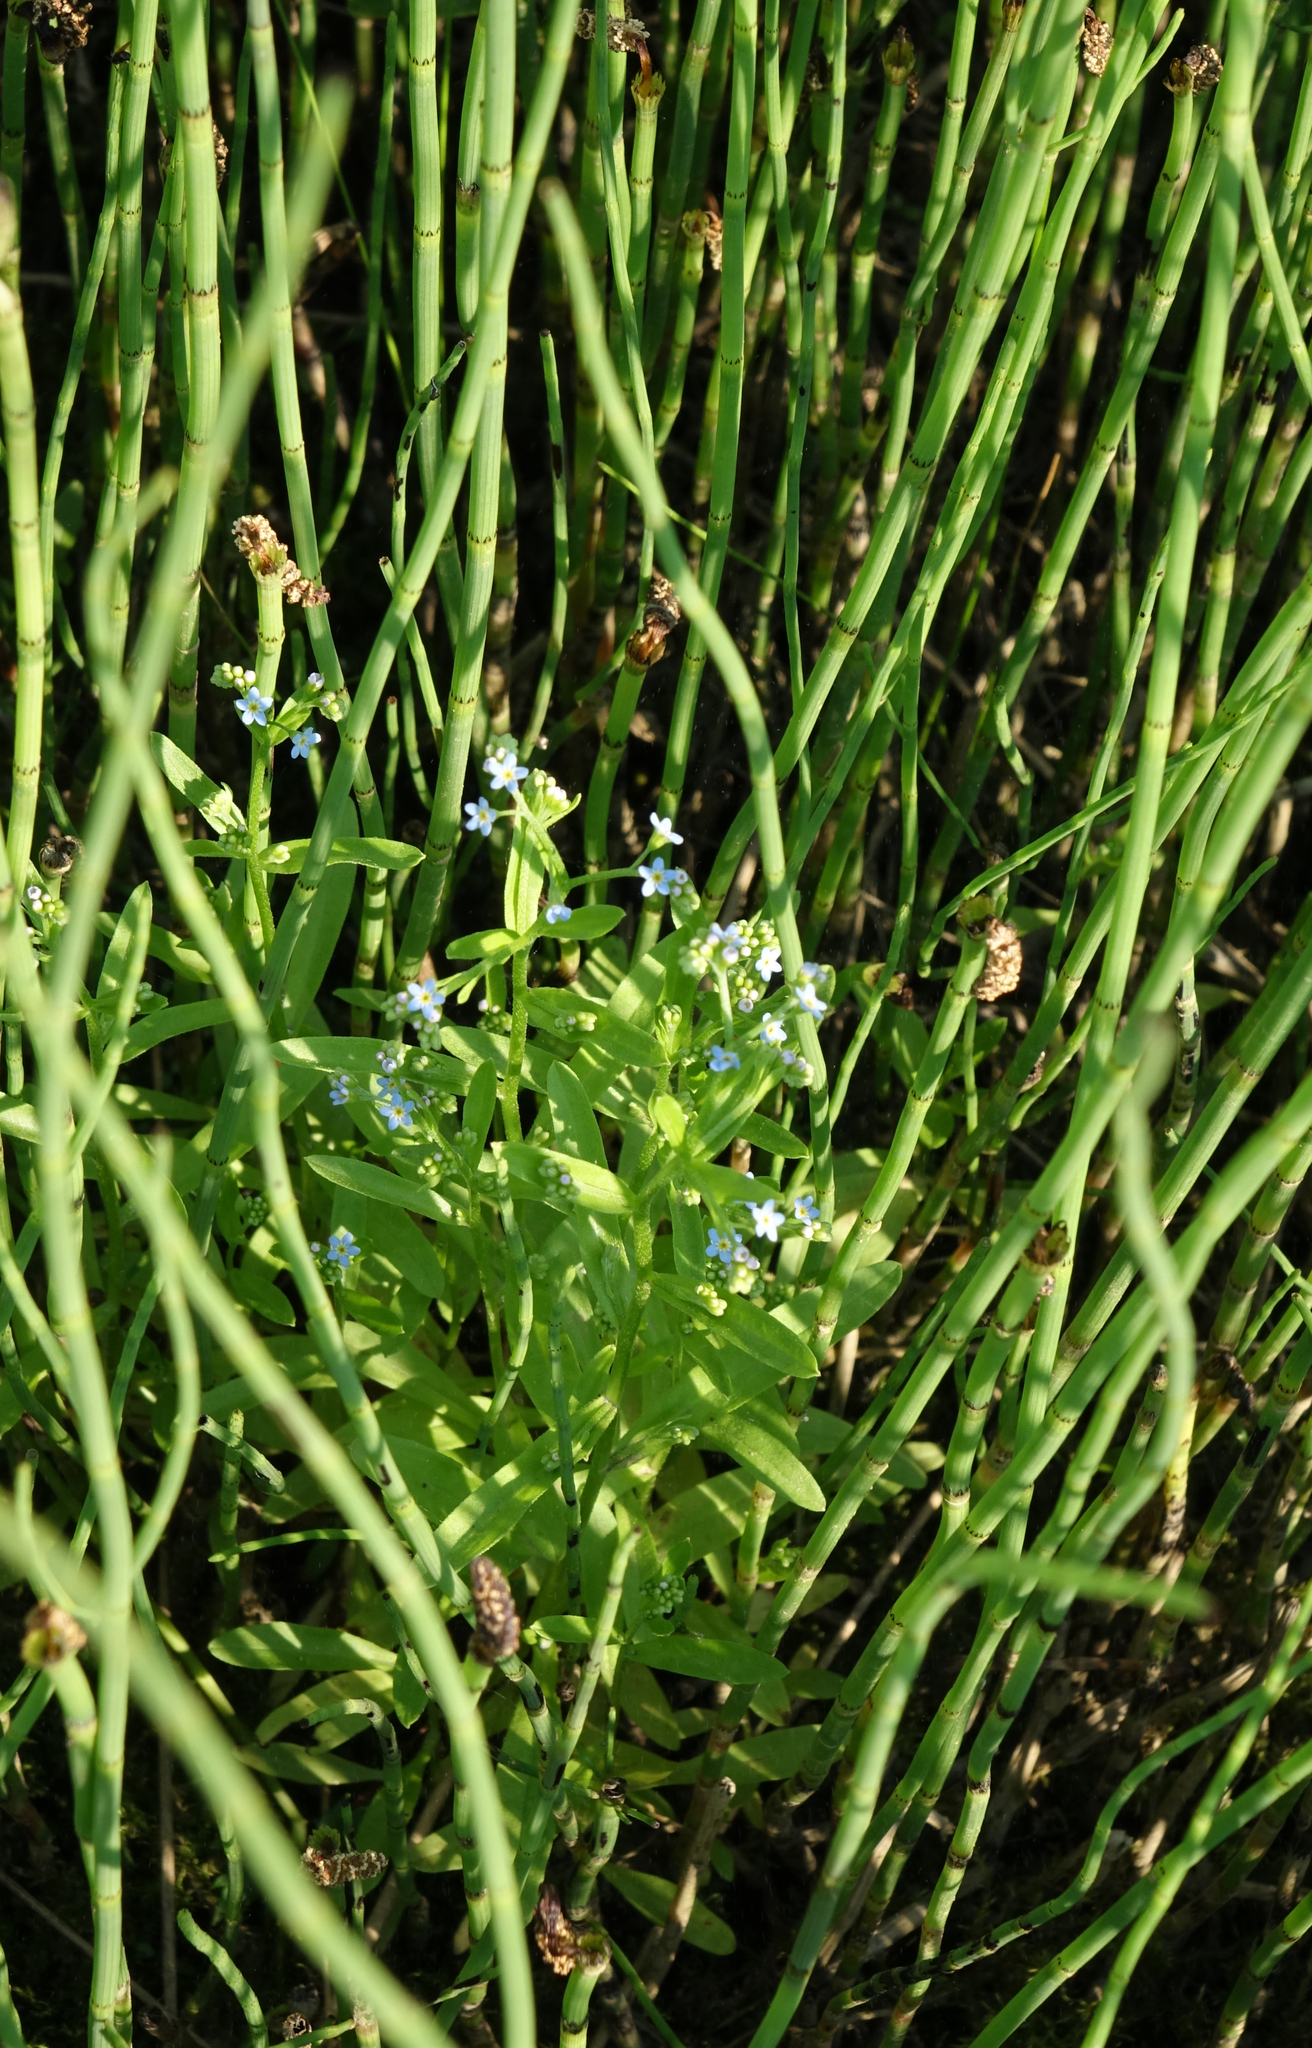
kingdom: Plantae
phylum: Tracheophyta
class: Magnoliopsida
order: Boraginales
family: Boraginaceae
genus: Myosotis
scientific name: Myosotis scorpioides
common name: Water forget-me-not
